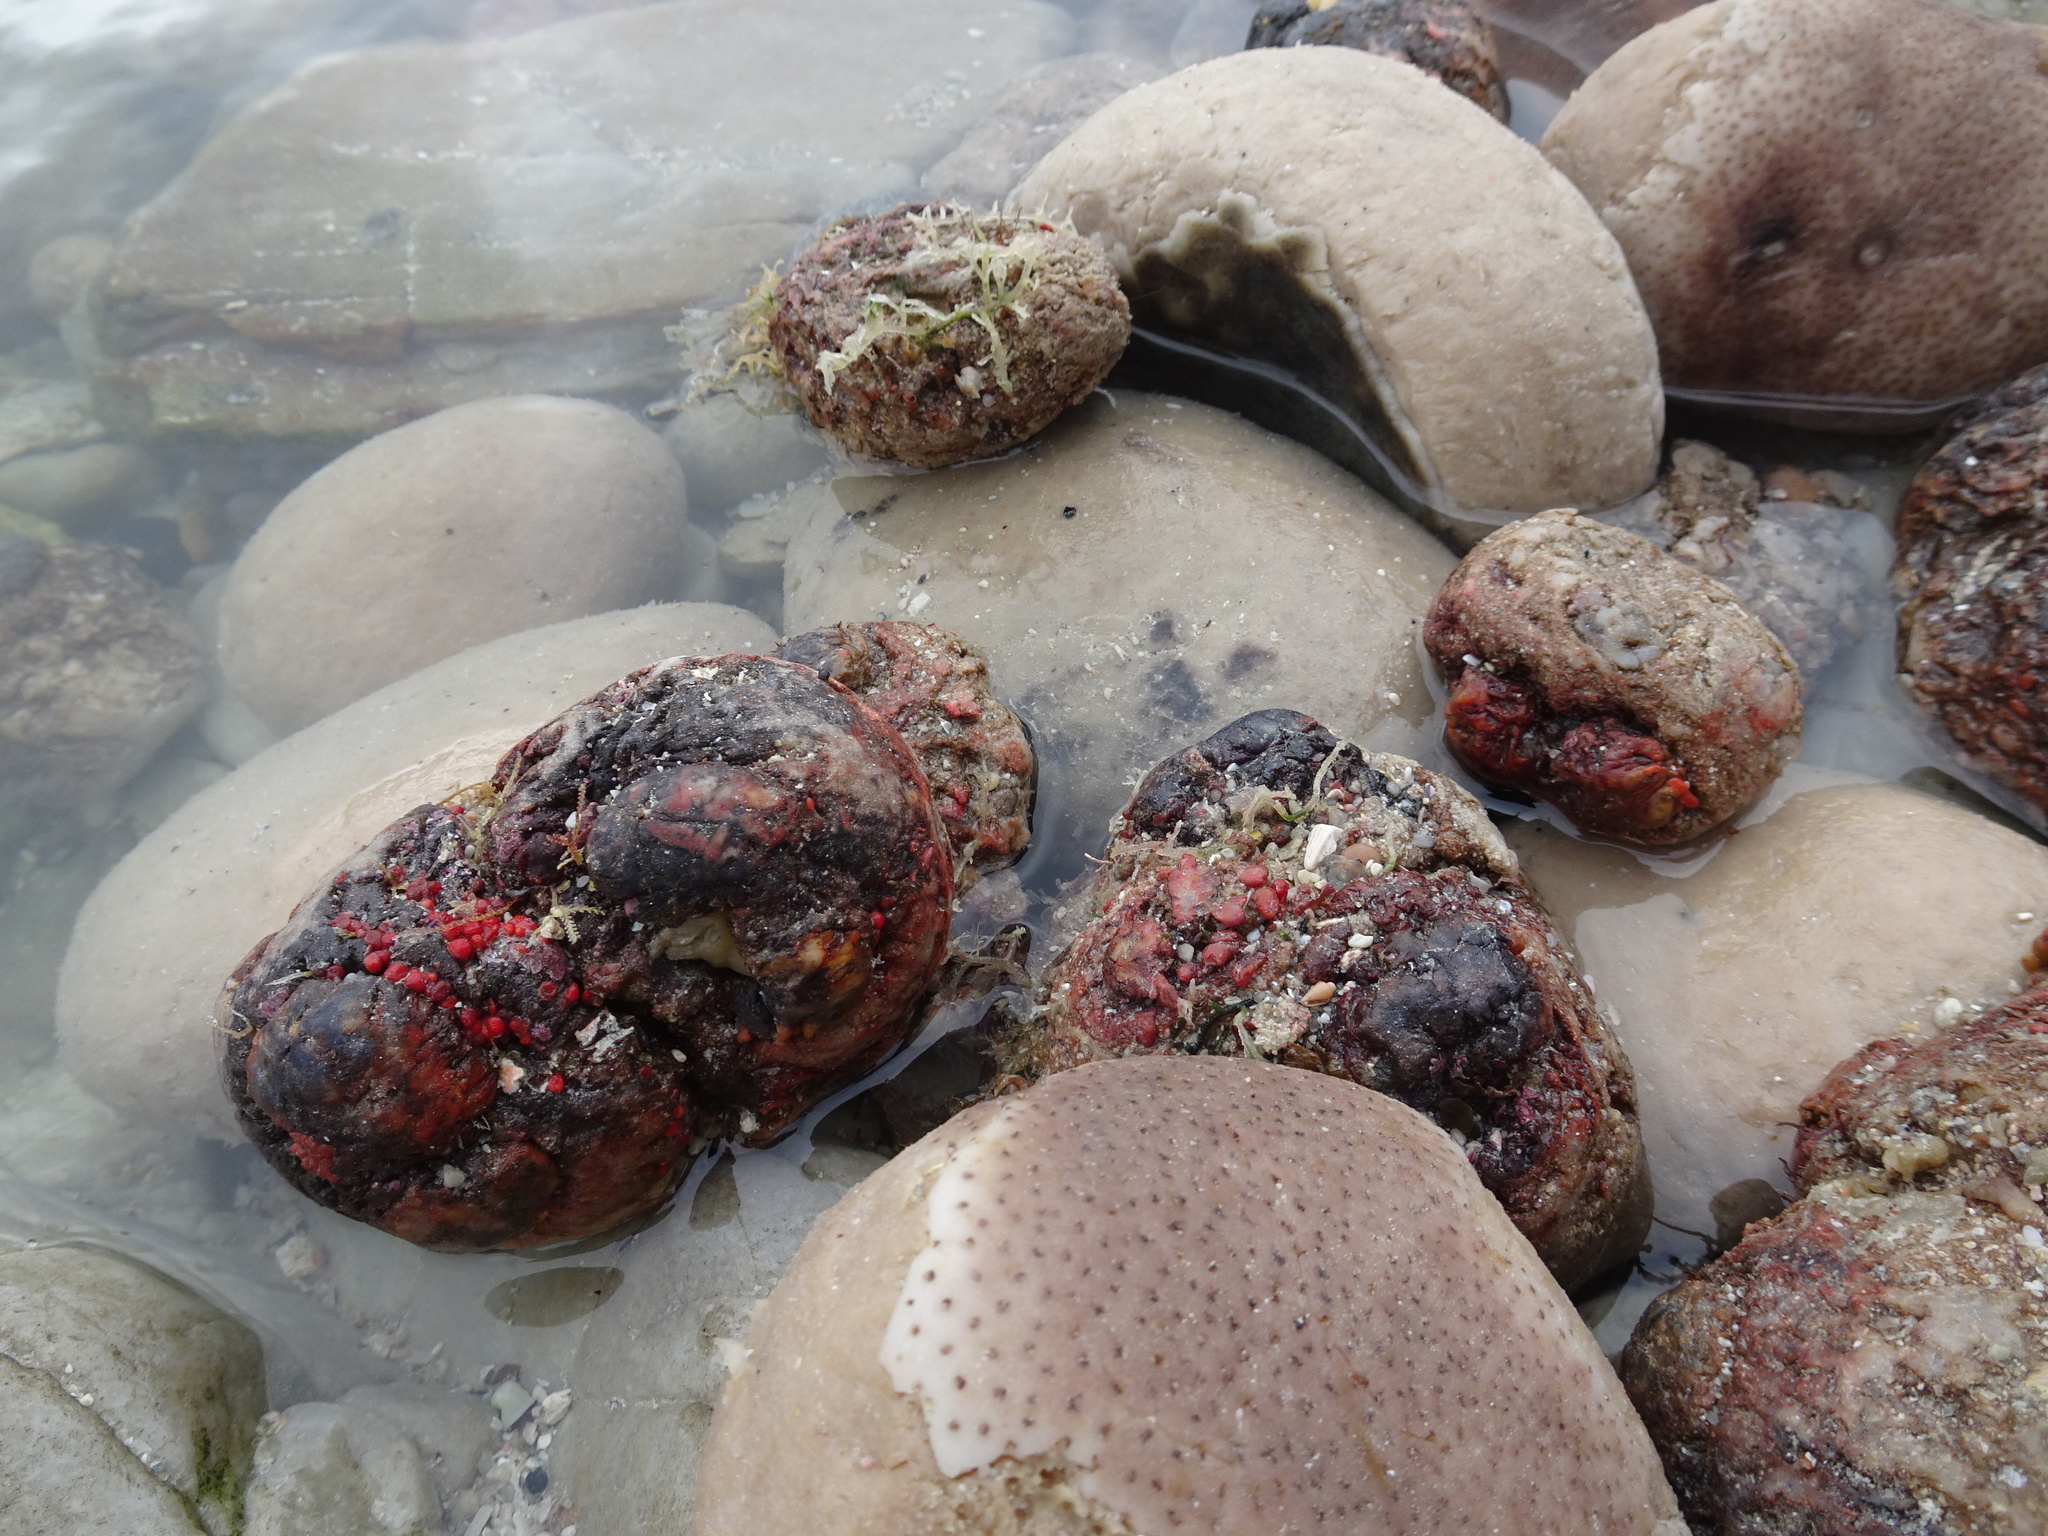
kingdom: Animalia
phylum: Chordata
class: Ascidiacea
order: Stolidobranchia
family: Pyuridae
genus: Pyura
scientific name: Pyura stolonifera
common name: Red bait
